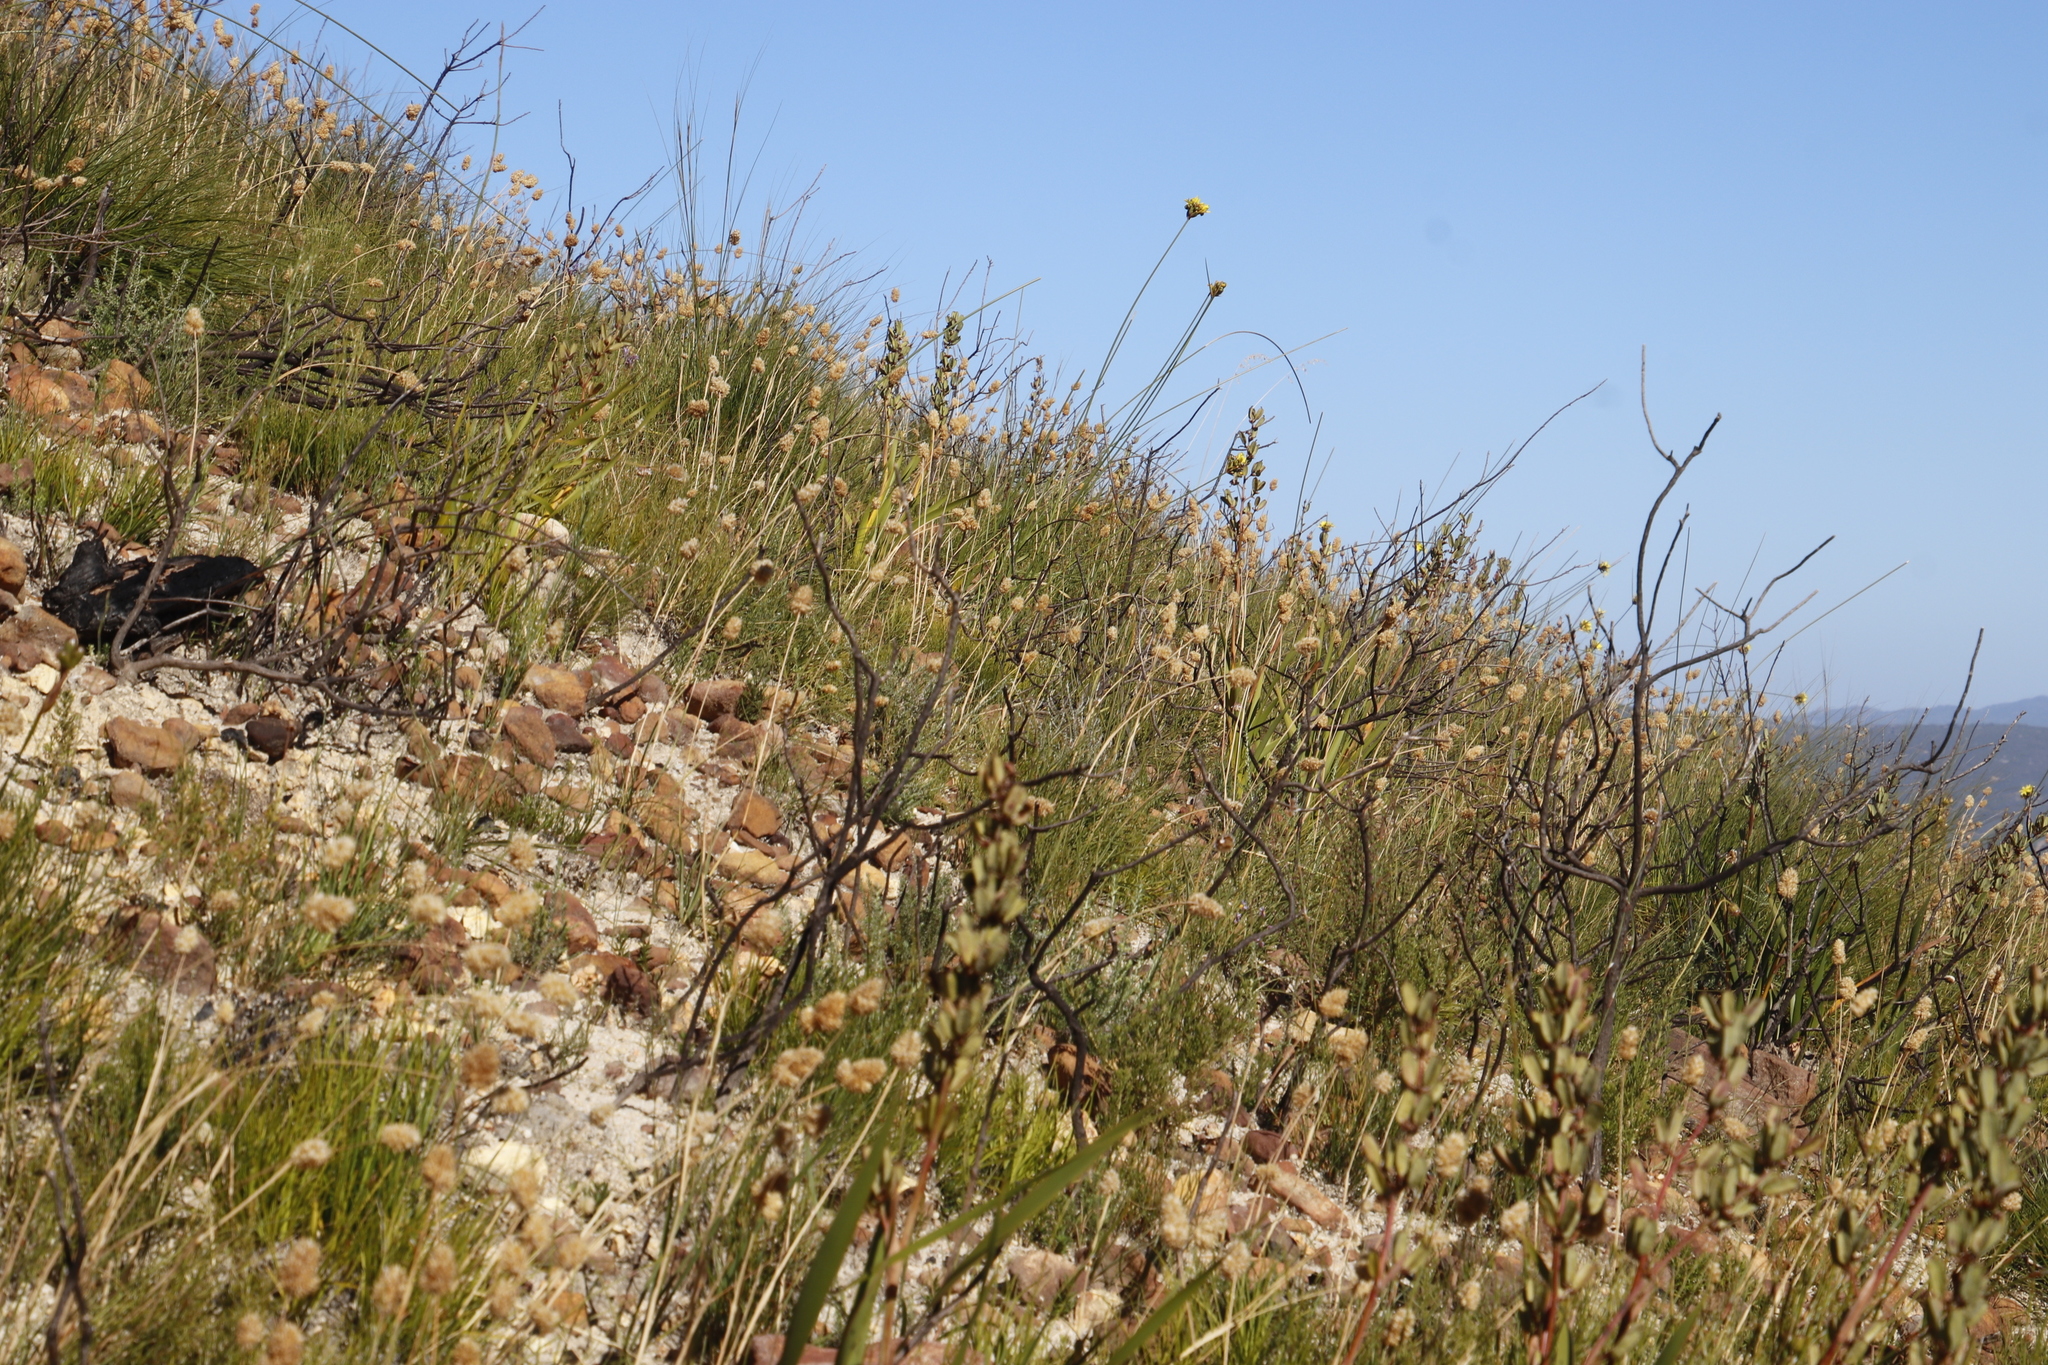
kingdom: Plantae
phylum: Tracheophyta
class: Liliopsida
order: Poales
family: Poaceae
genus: Geochloa
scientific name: Geochloa rufa
